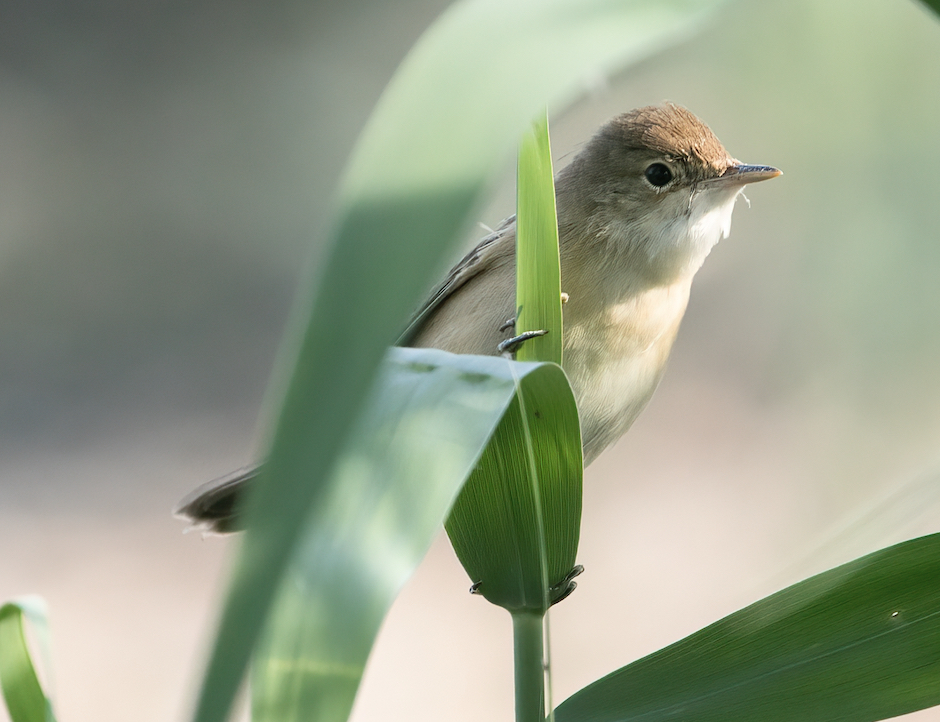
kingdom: Animalia
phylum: Chordata
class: Aves
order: Passeriformes
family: Acrocephalidae
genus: Acrocephalus
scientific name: Acrocephalus scirpaceus
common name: Eurasian reed warbler
